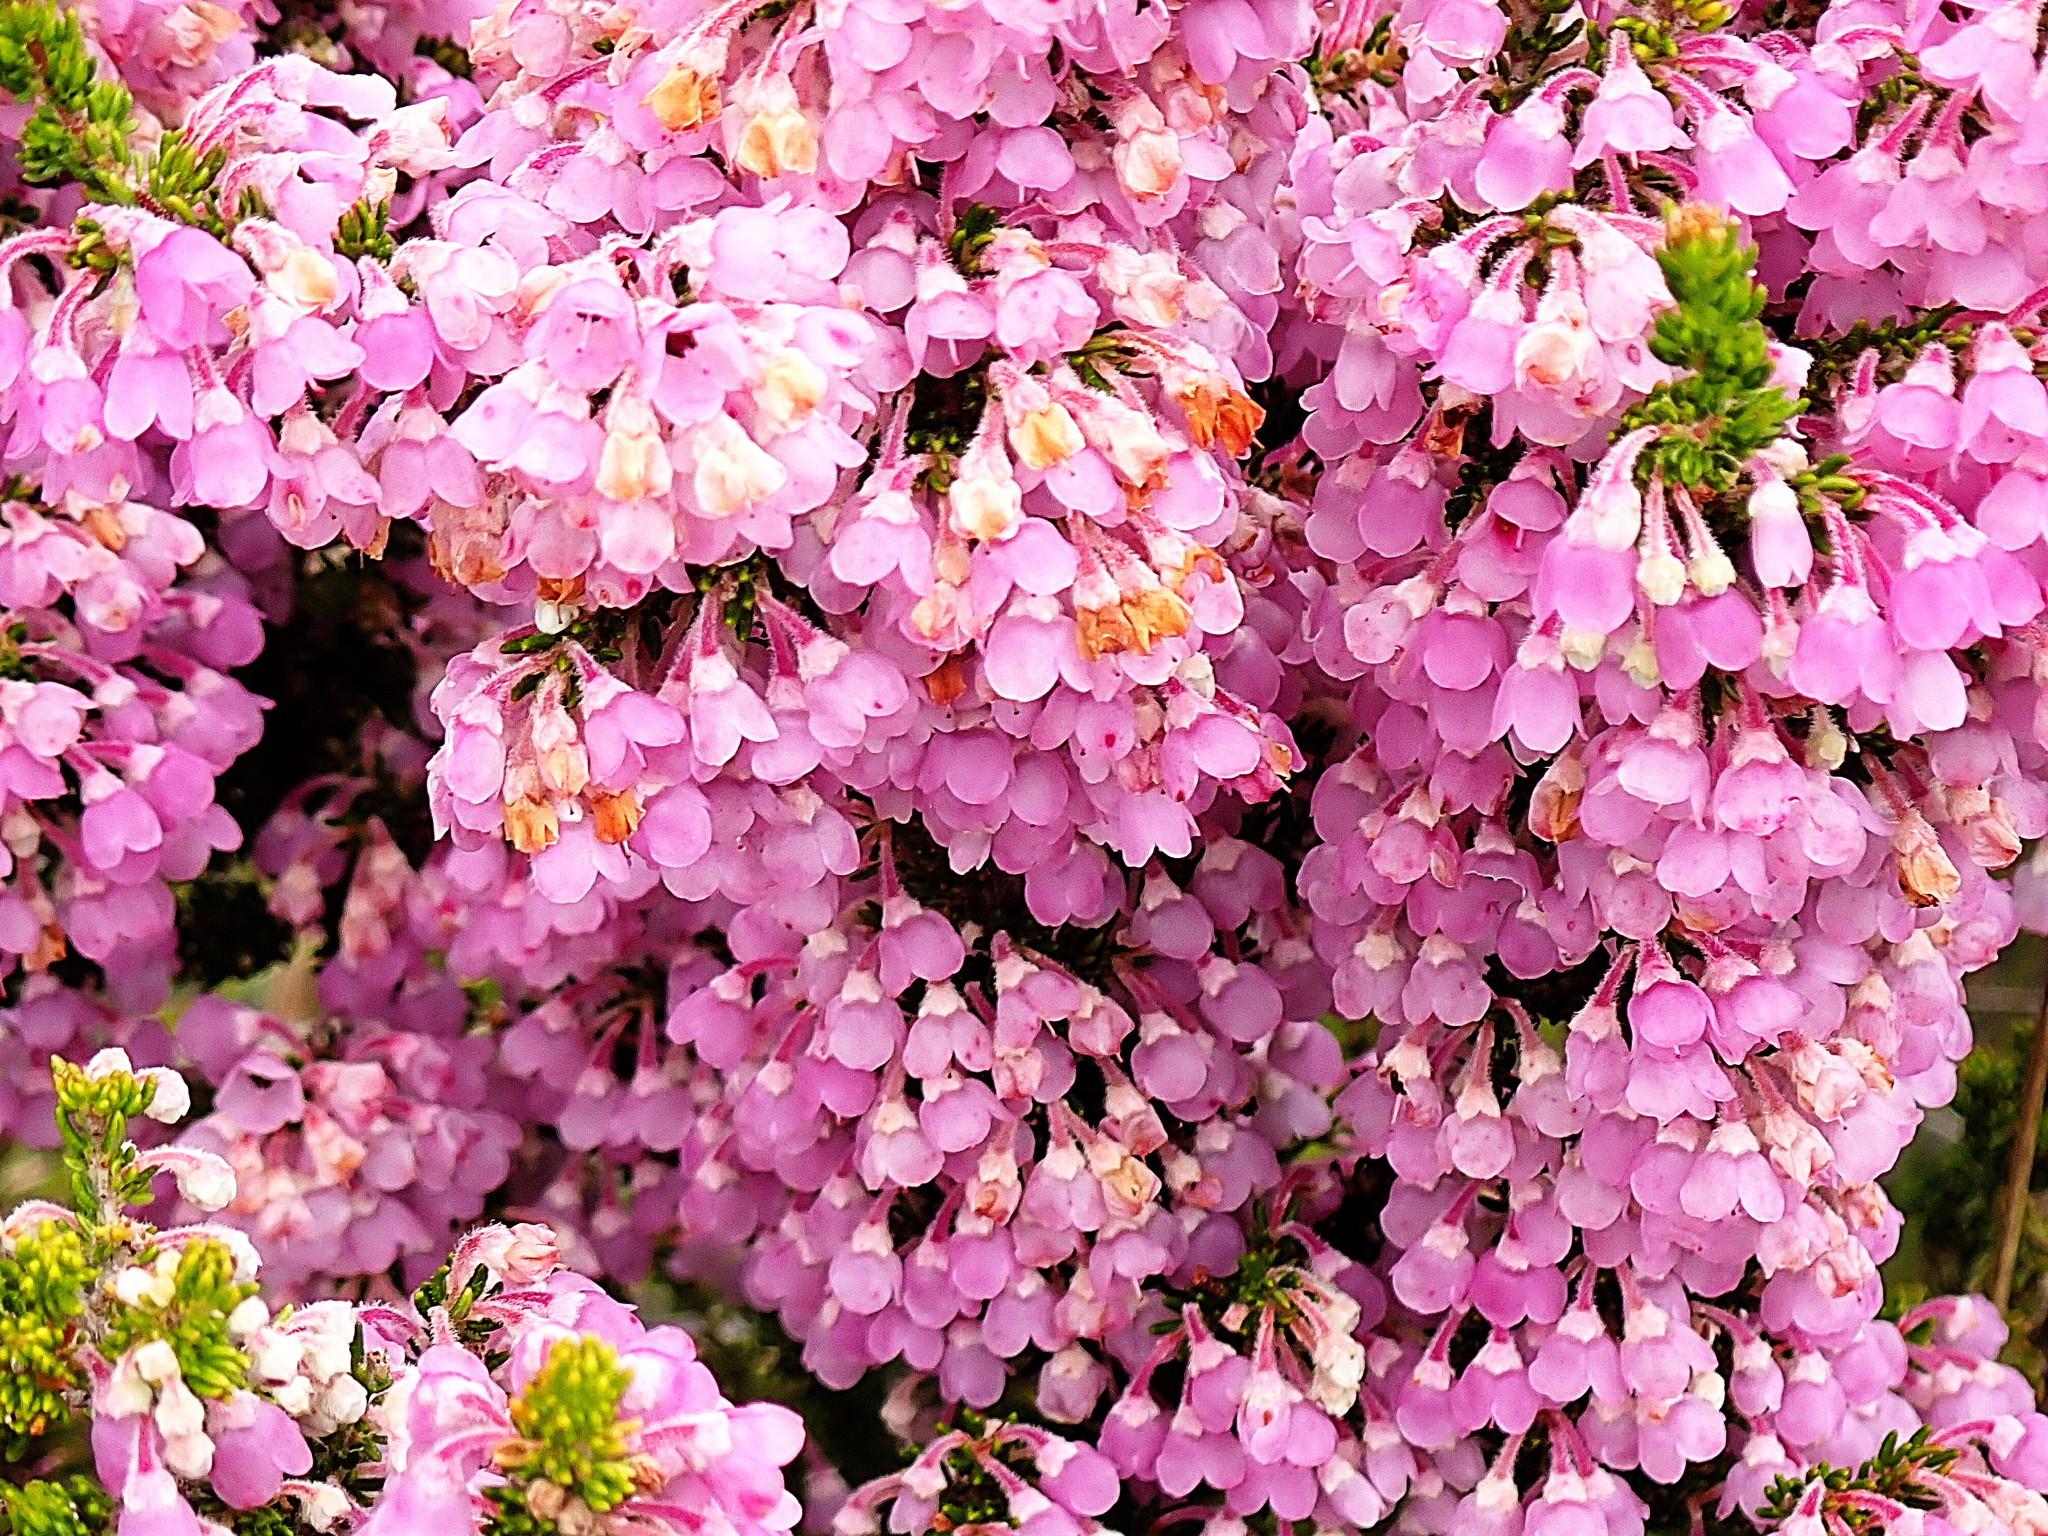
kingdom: Plantae
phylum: Tracheophyta
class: Magnoliopsida
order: Ericales
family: Ericaceae
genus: Erica
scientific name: Erica chamissonis
